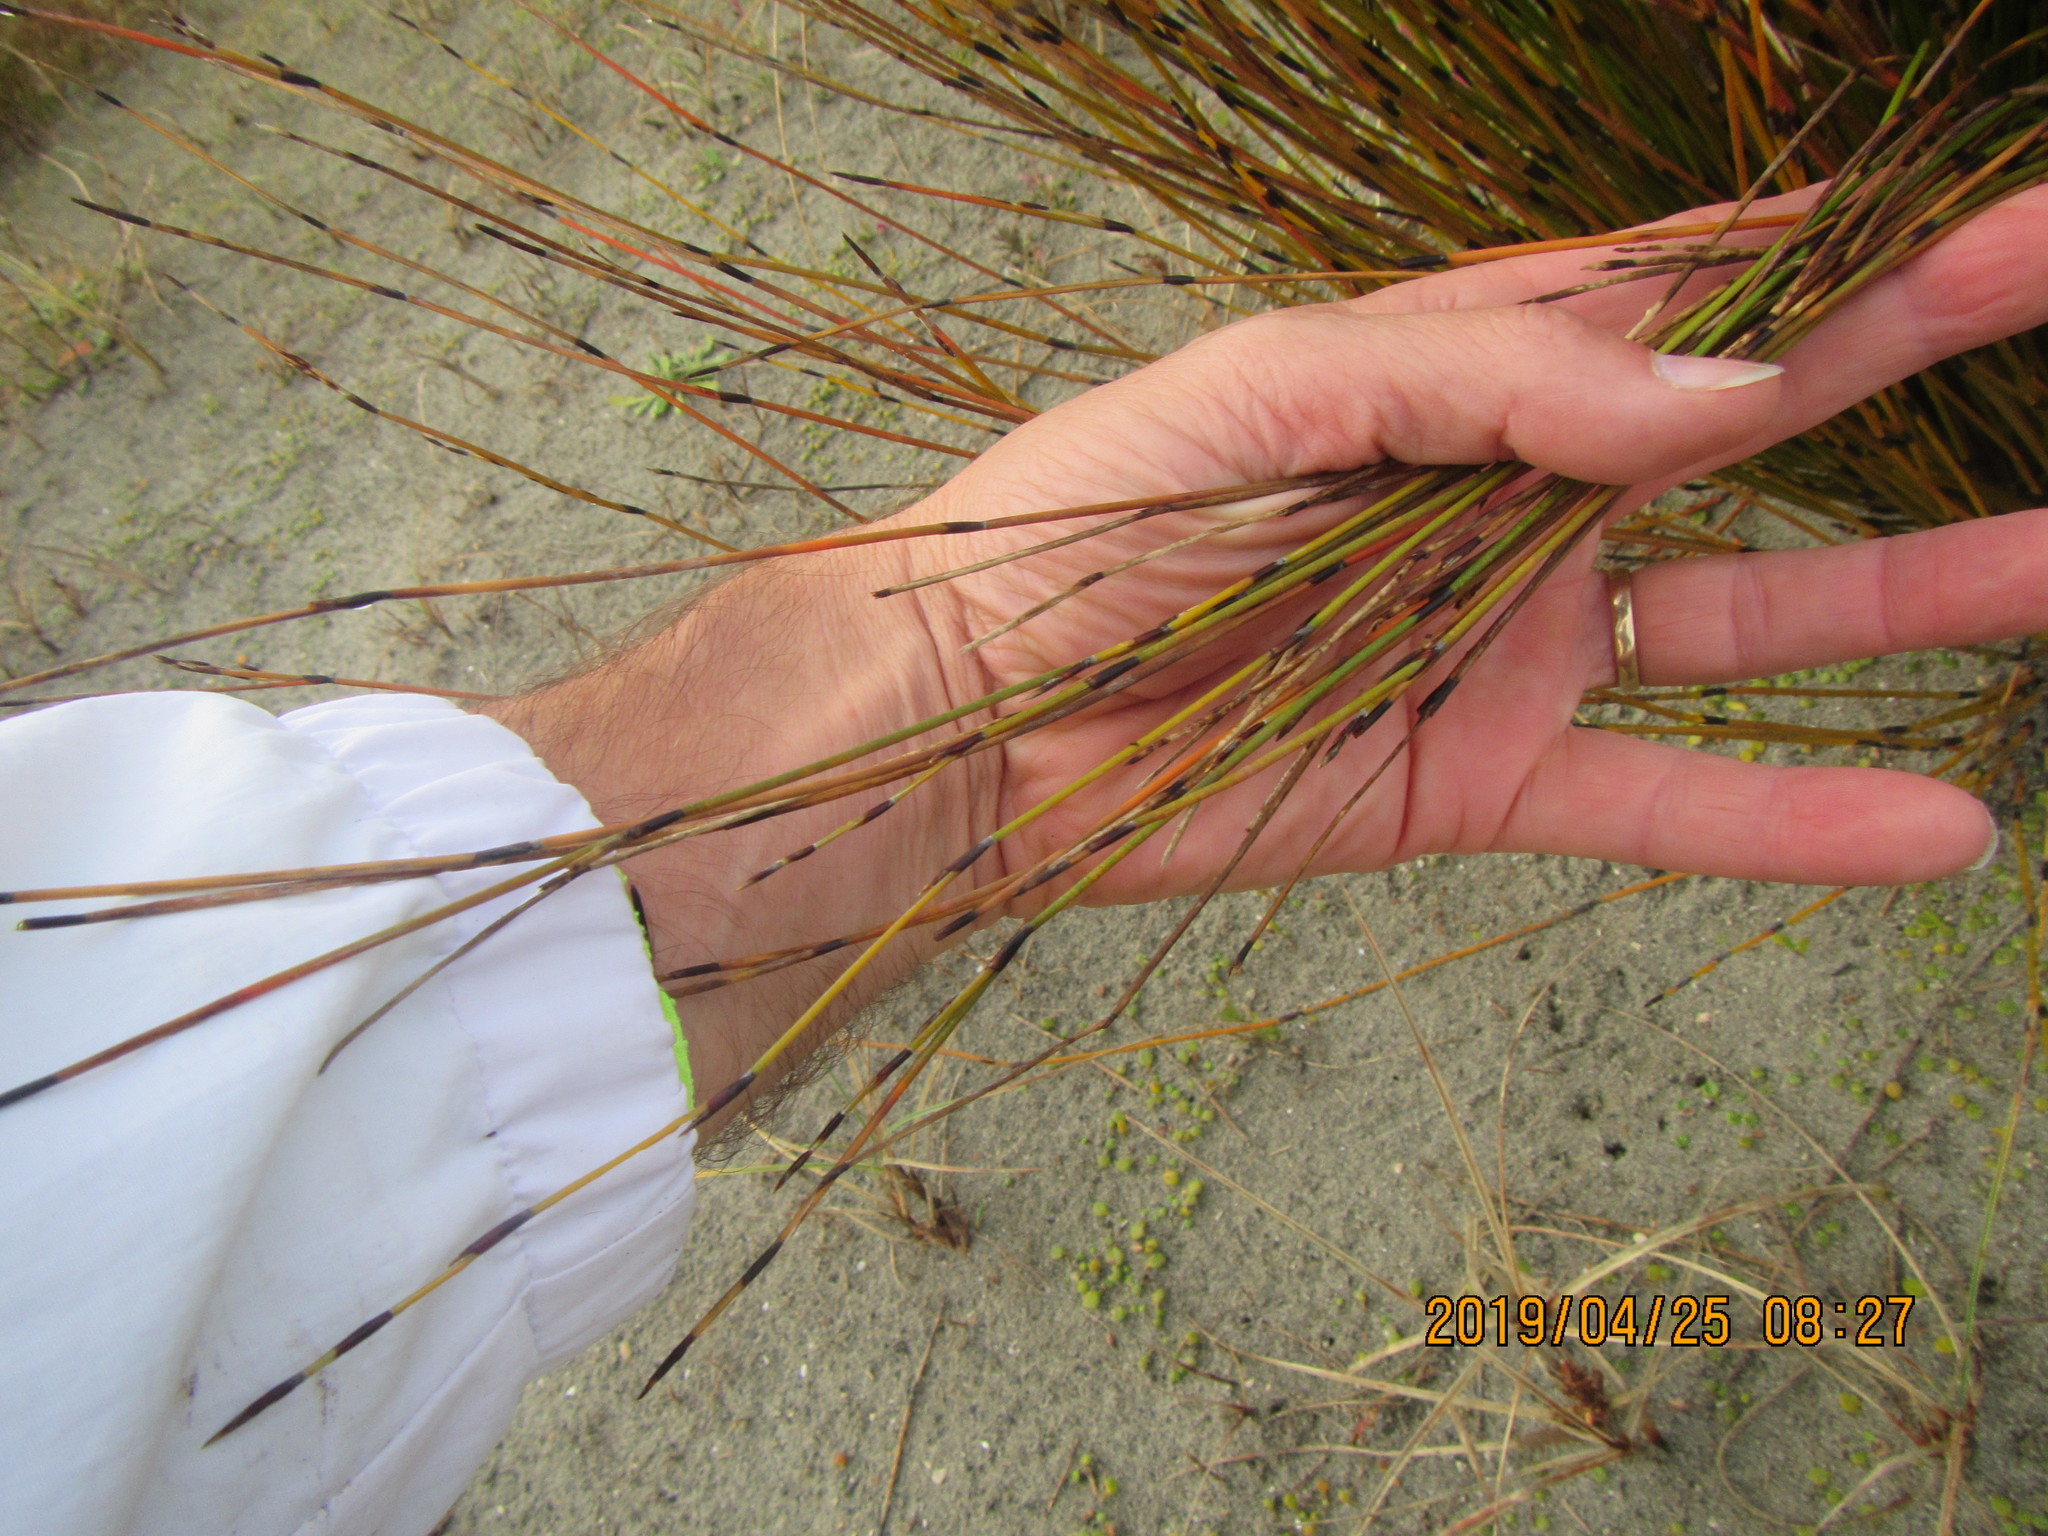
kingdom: Plantae
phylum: Tracheophyta
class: Liliopsida
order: Poales
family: Restionaceae
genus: Apodasmia
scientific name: Apodasmia similis
